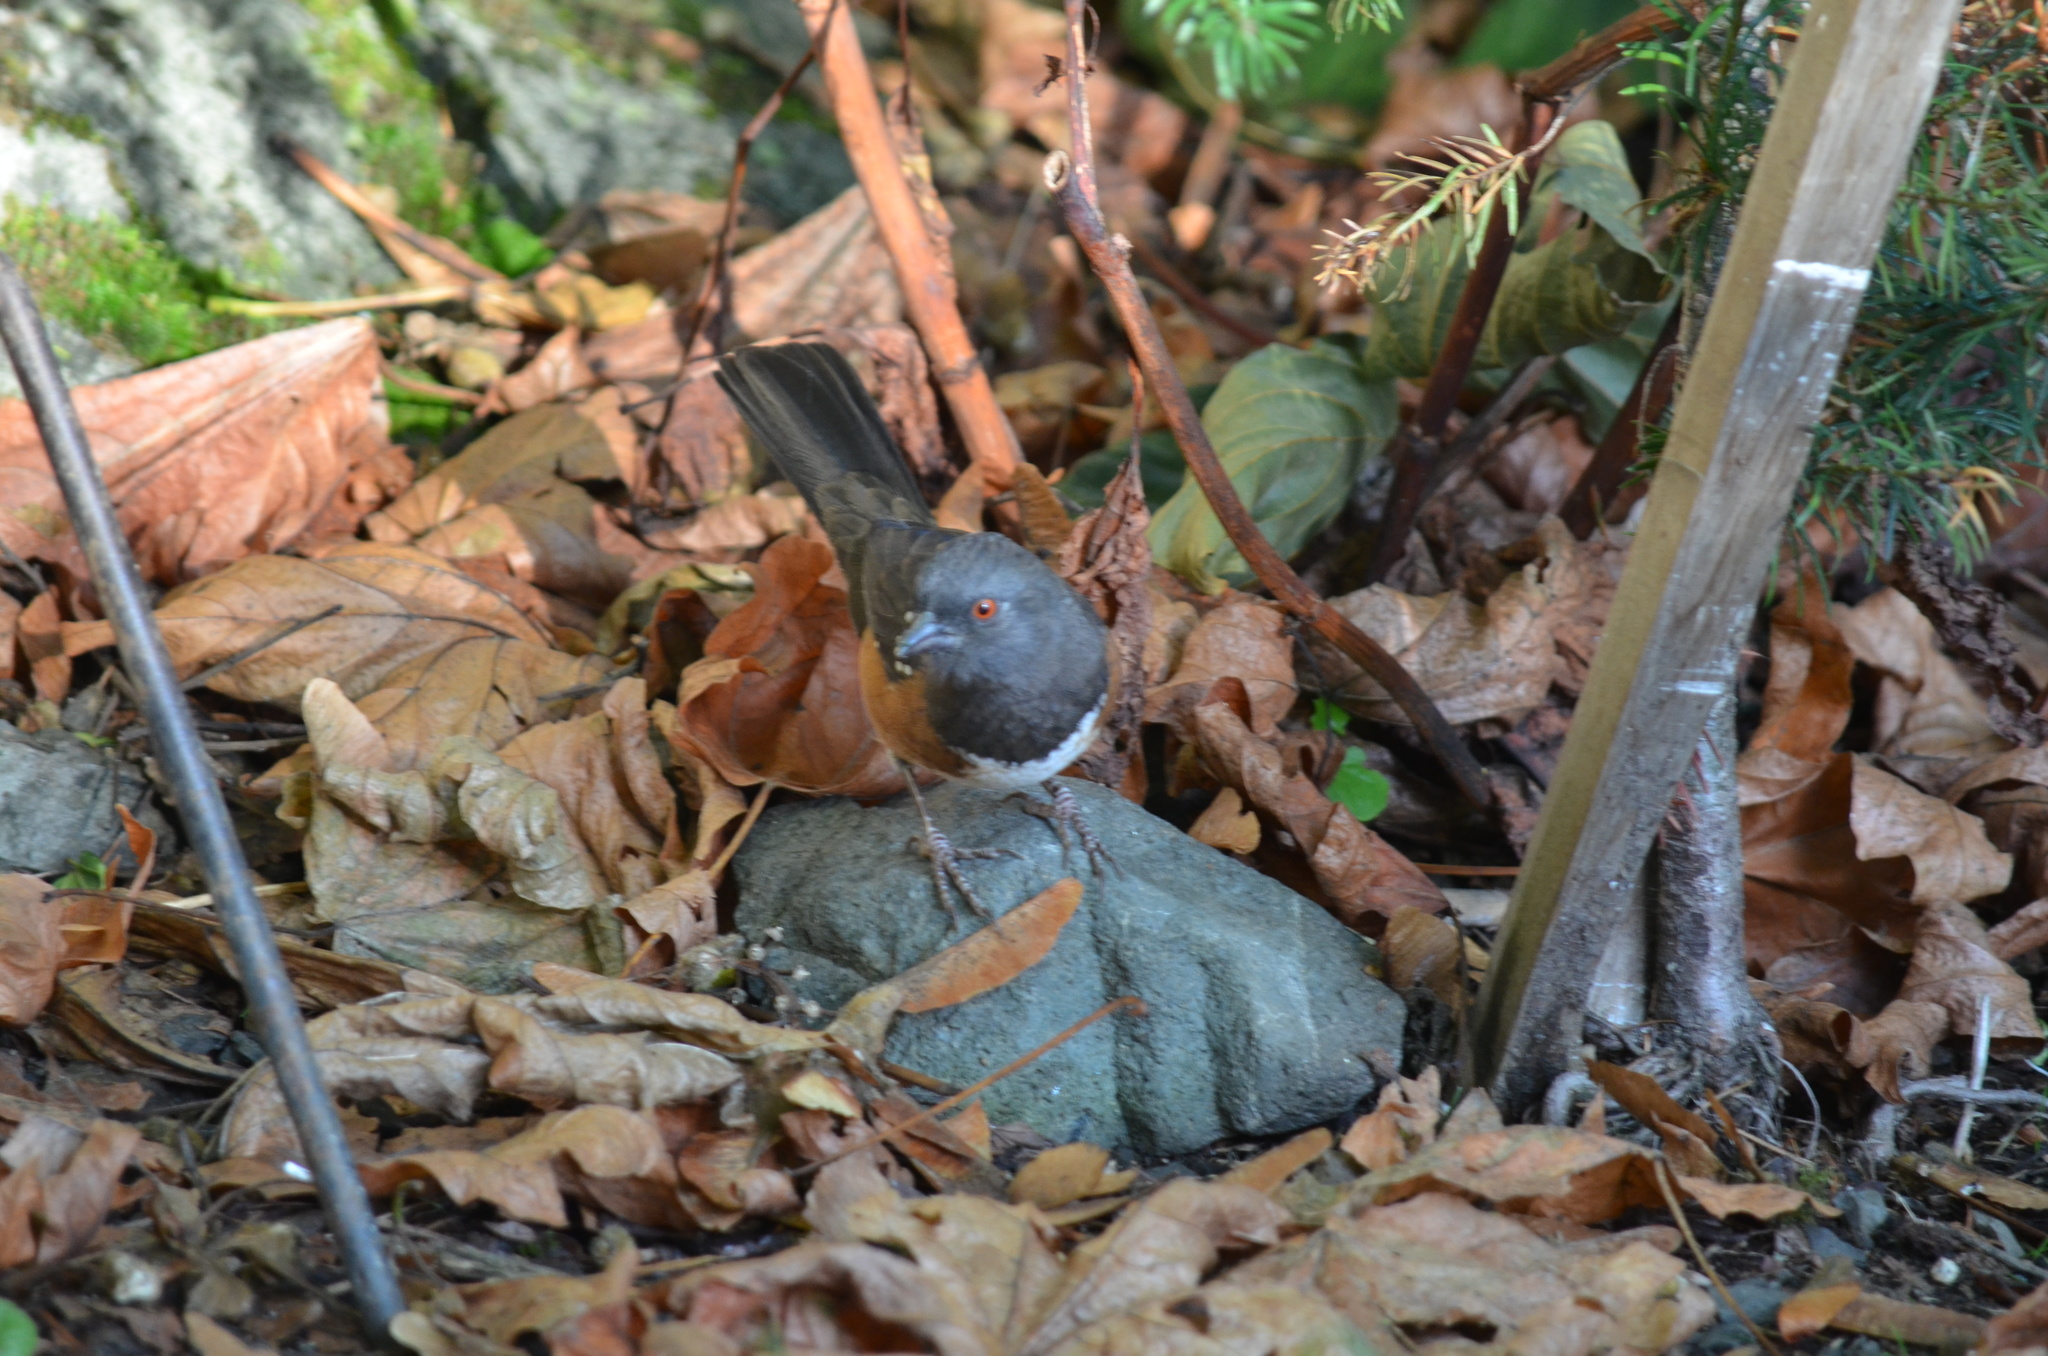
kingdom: Animalia
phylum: Chordata
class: Aves
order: Passeriformes
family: Passerellidae
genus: Pipilo
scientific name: Pipilo maculatus
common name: Spotted towhee
